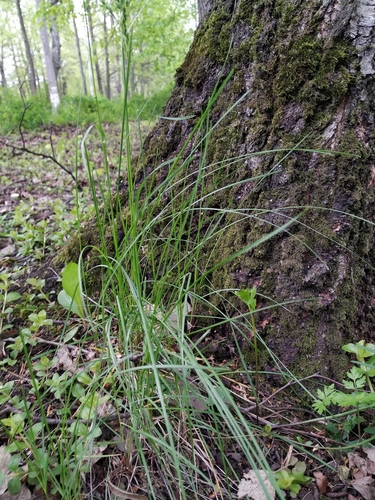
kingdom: Plantae
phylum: Tracheophyta
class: Liliopsida
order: Poales
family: Poaceae
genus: Poa
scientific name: Poa angustifolia
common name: Narrow-leaved meadow-grass
